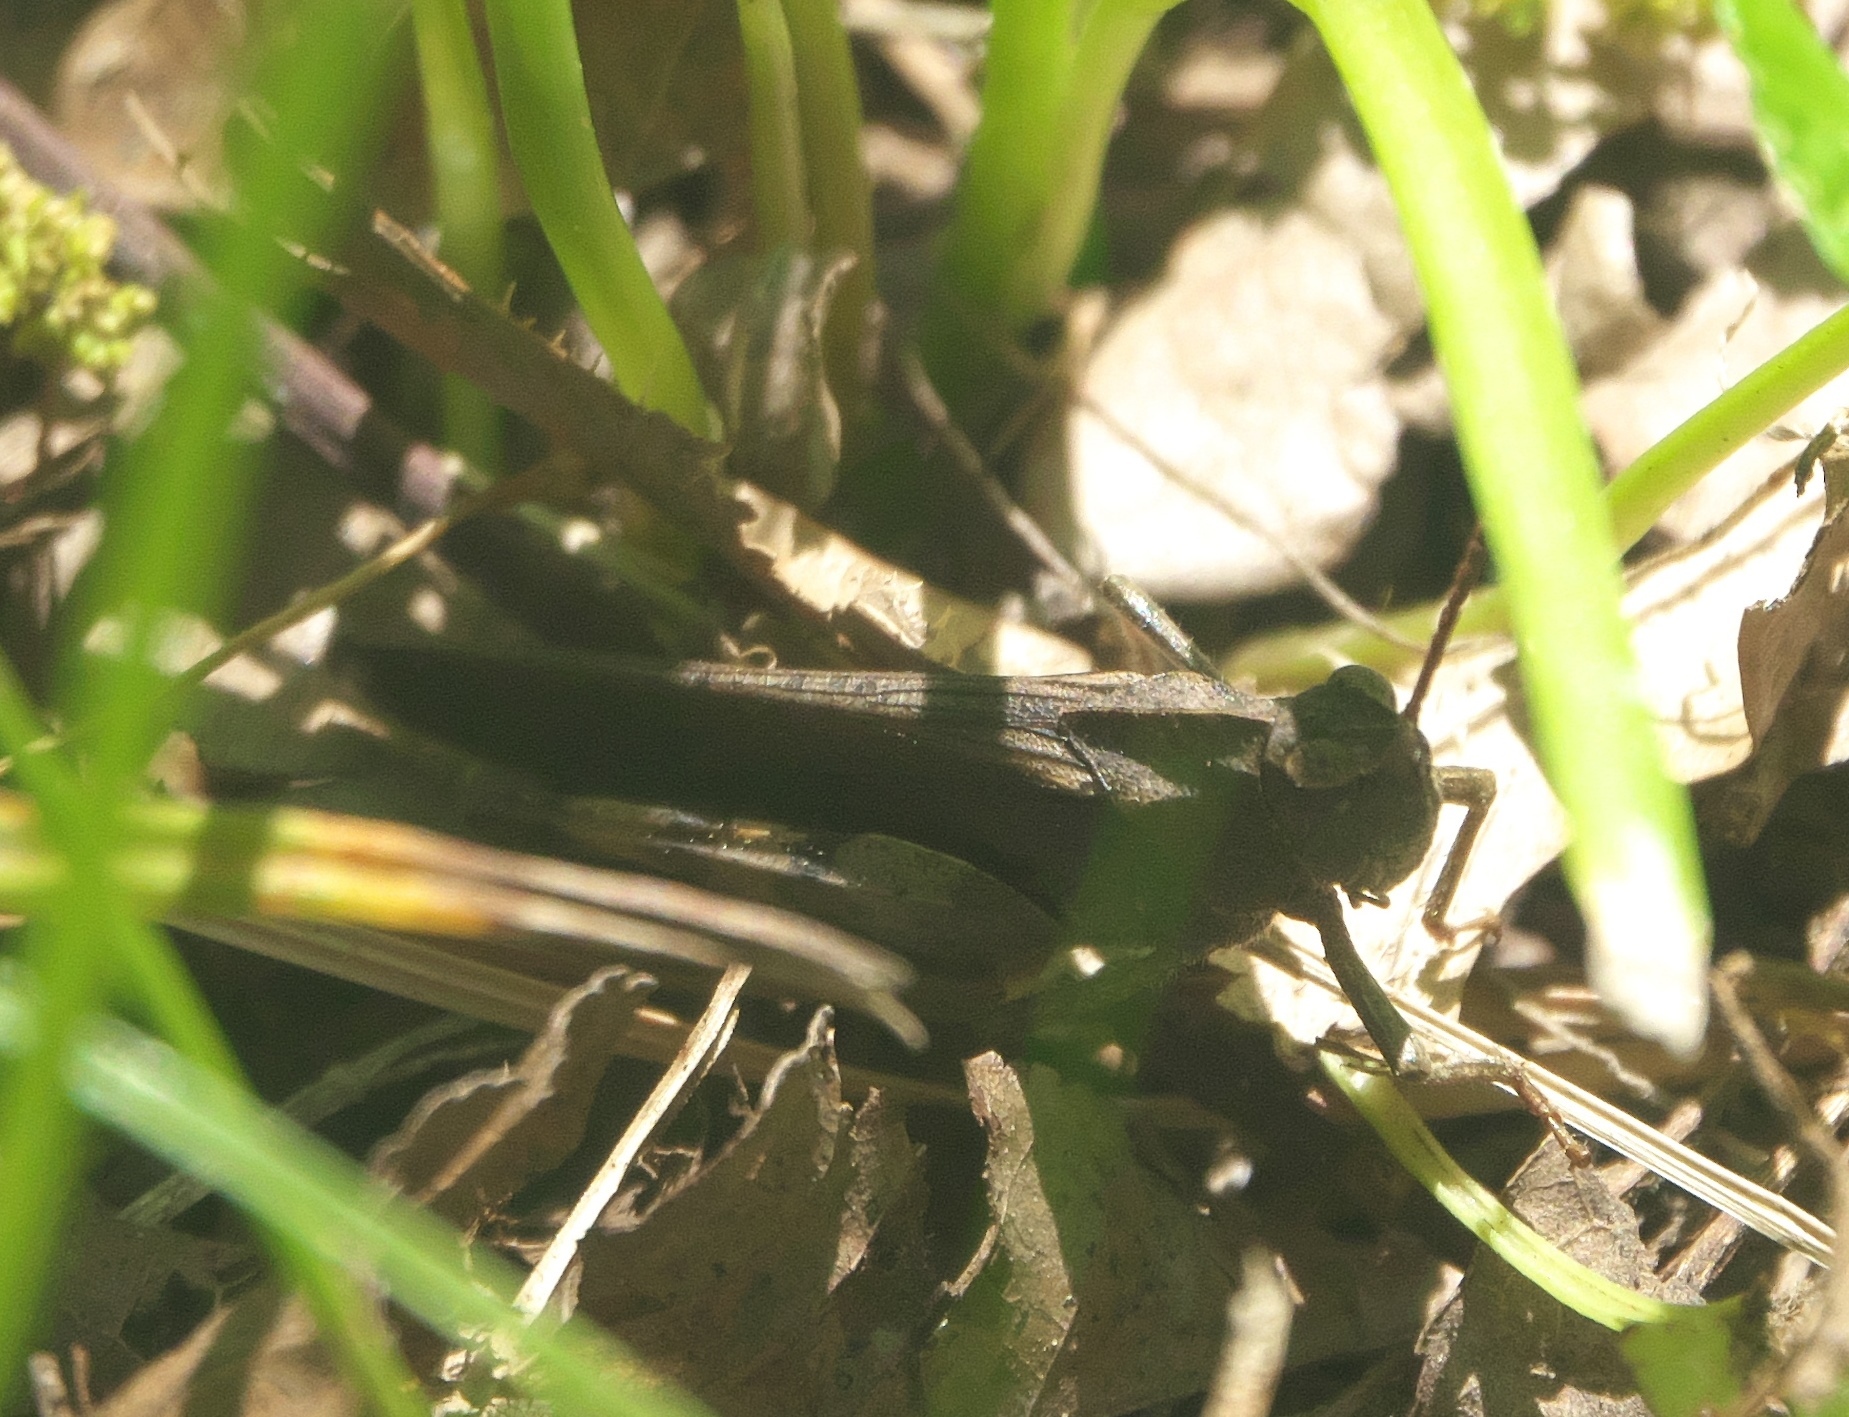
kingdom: Animalia
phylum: Arthropoda
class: Insecta
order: Orthoptera
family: Acrididae
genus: Chortophaga
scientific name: Chortophaga viridifasciata
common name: Green-striped grasshopper
